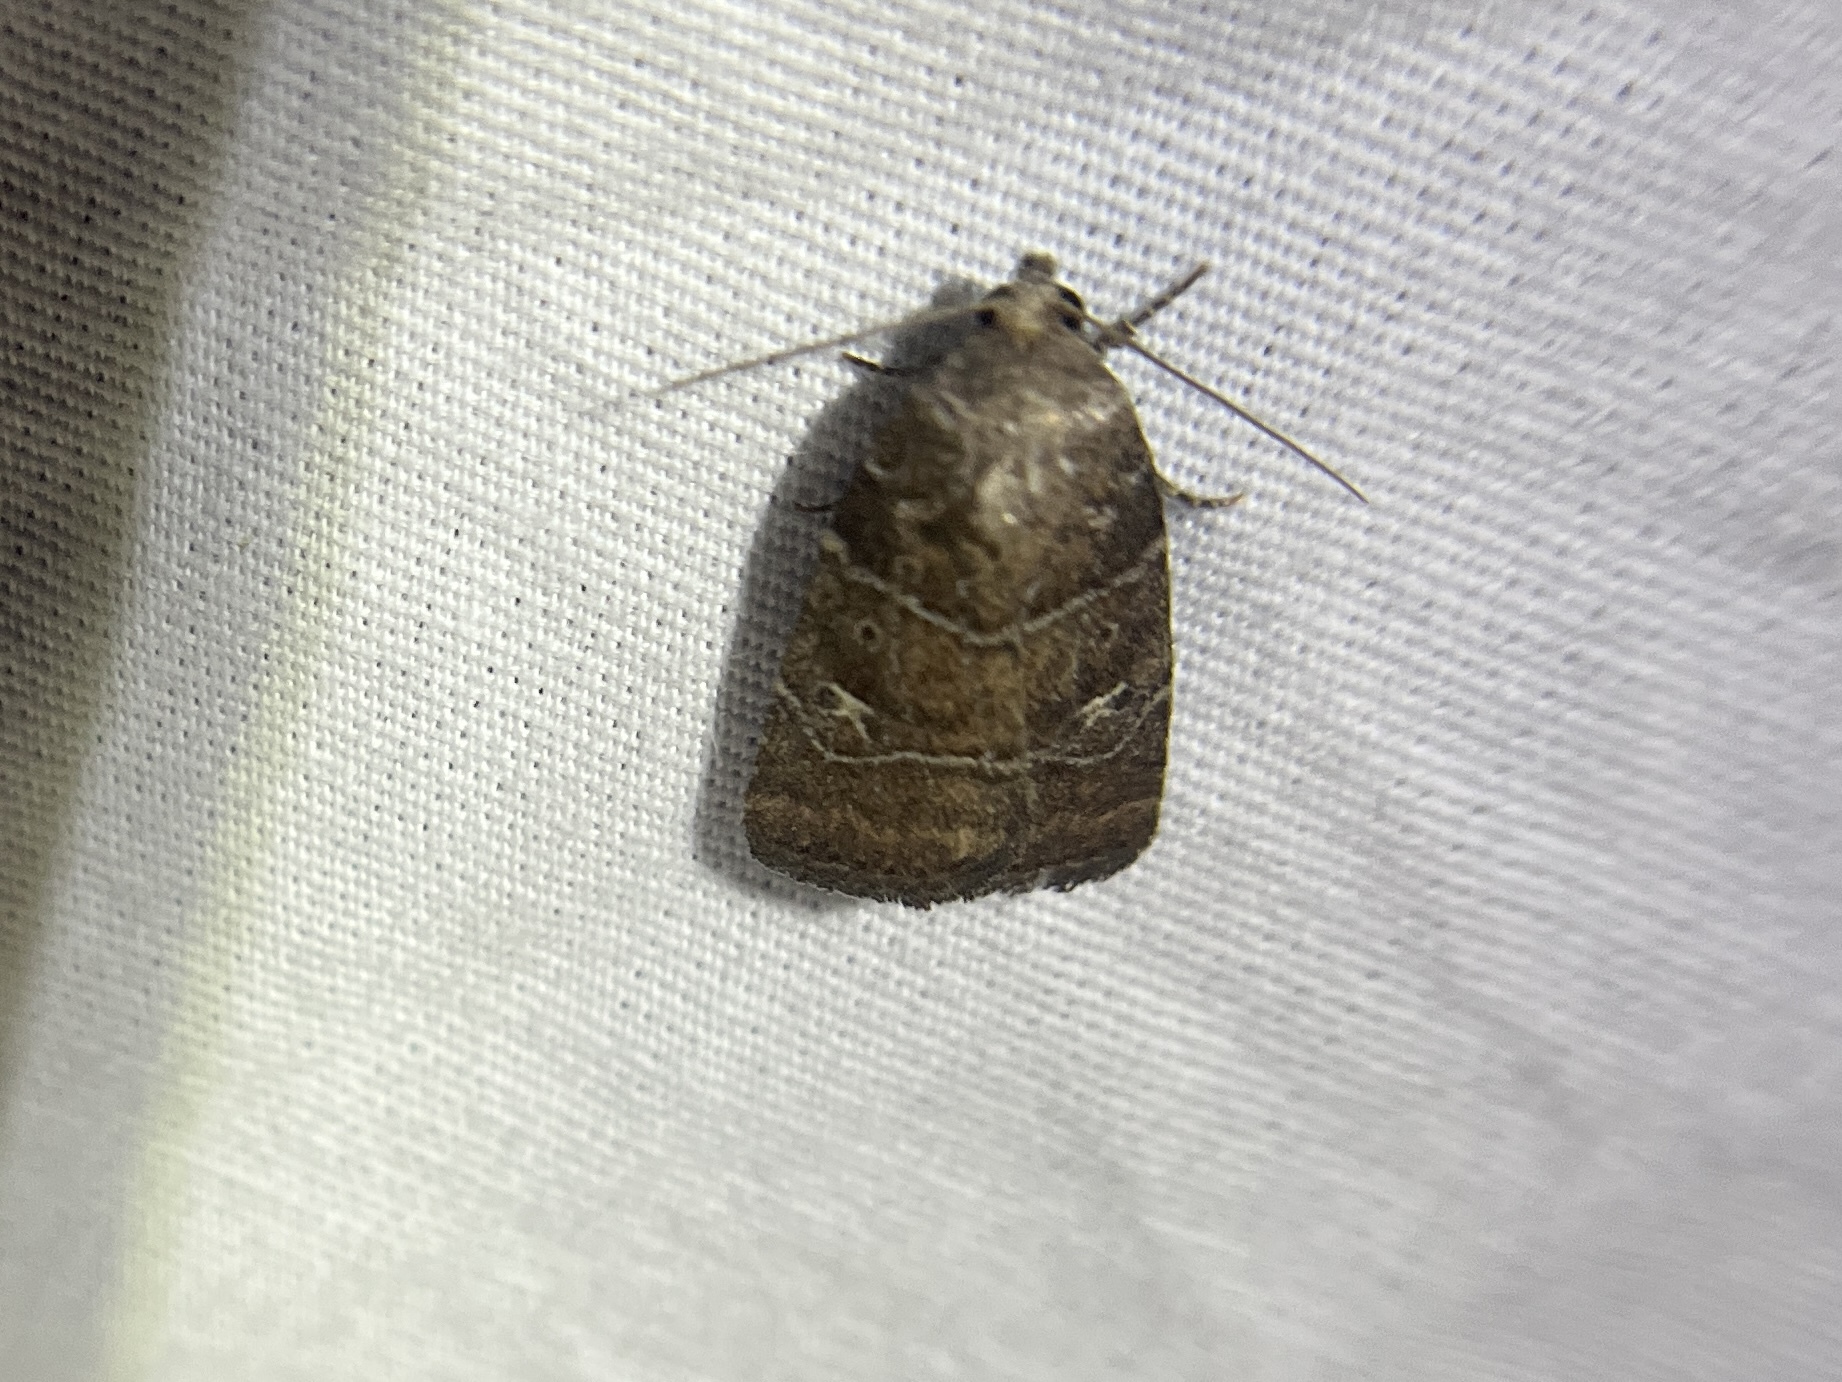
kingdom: Animalia
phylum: Arthropoda
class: Insecta
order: Lepidoptera
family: Noctuidae
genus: Elaphria
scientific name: Elaphria grata
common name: Grateful midget moth
